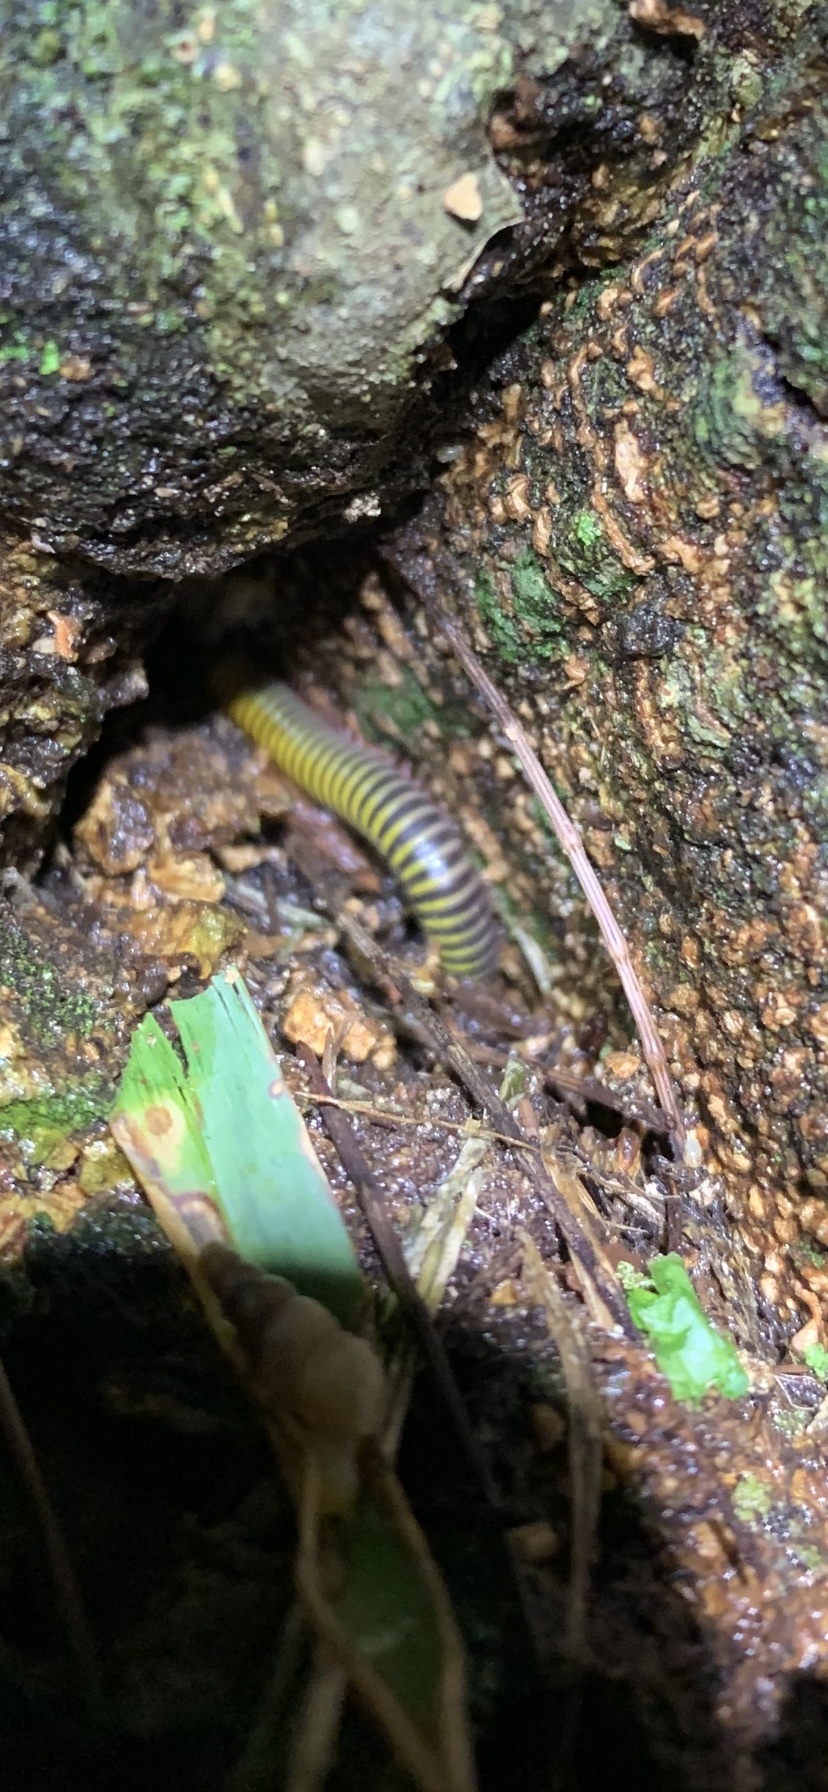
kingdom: Animalia
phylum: Arthropoda
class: Diplopoda
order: Spirobolida
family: Rhinocricidae
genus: Anadenobolus
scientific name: Anadenobolus monilicornis
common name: Caribbean millipede
